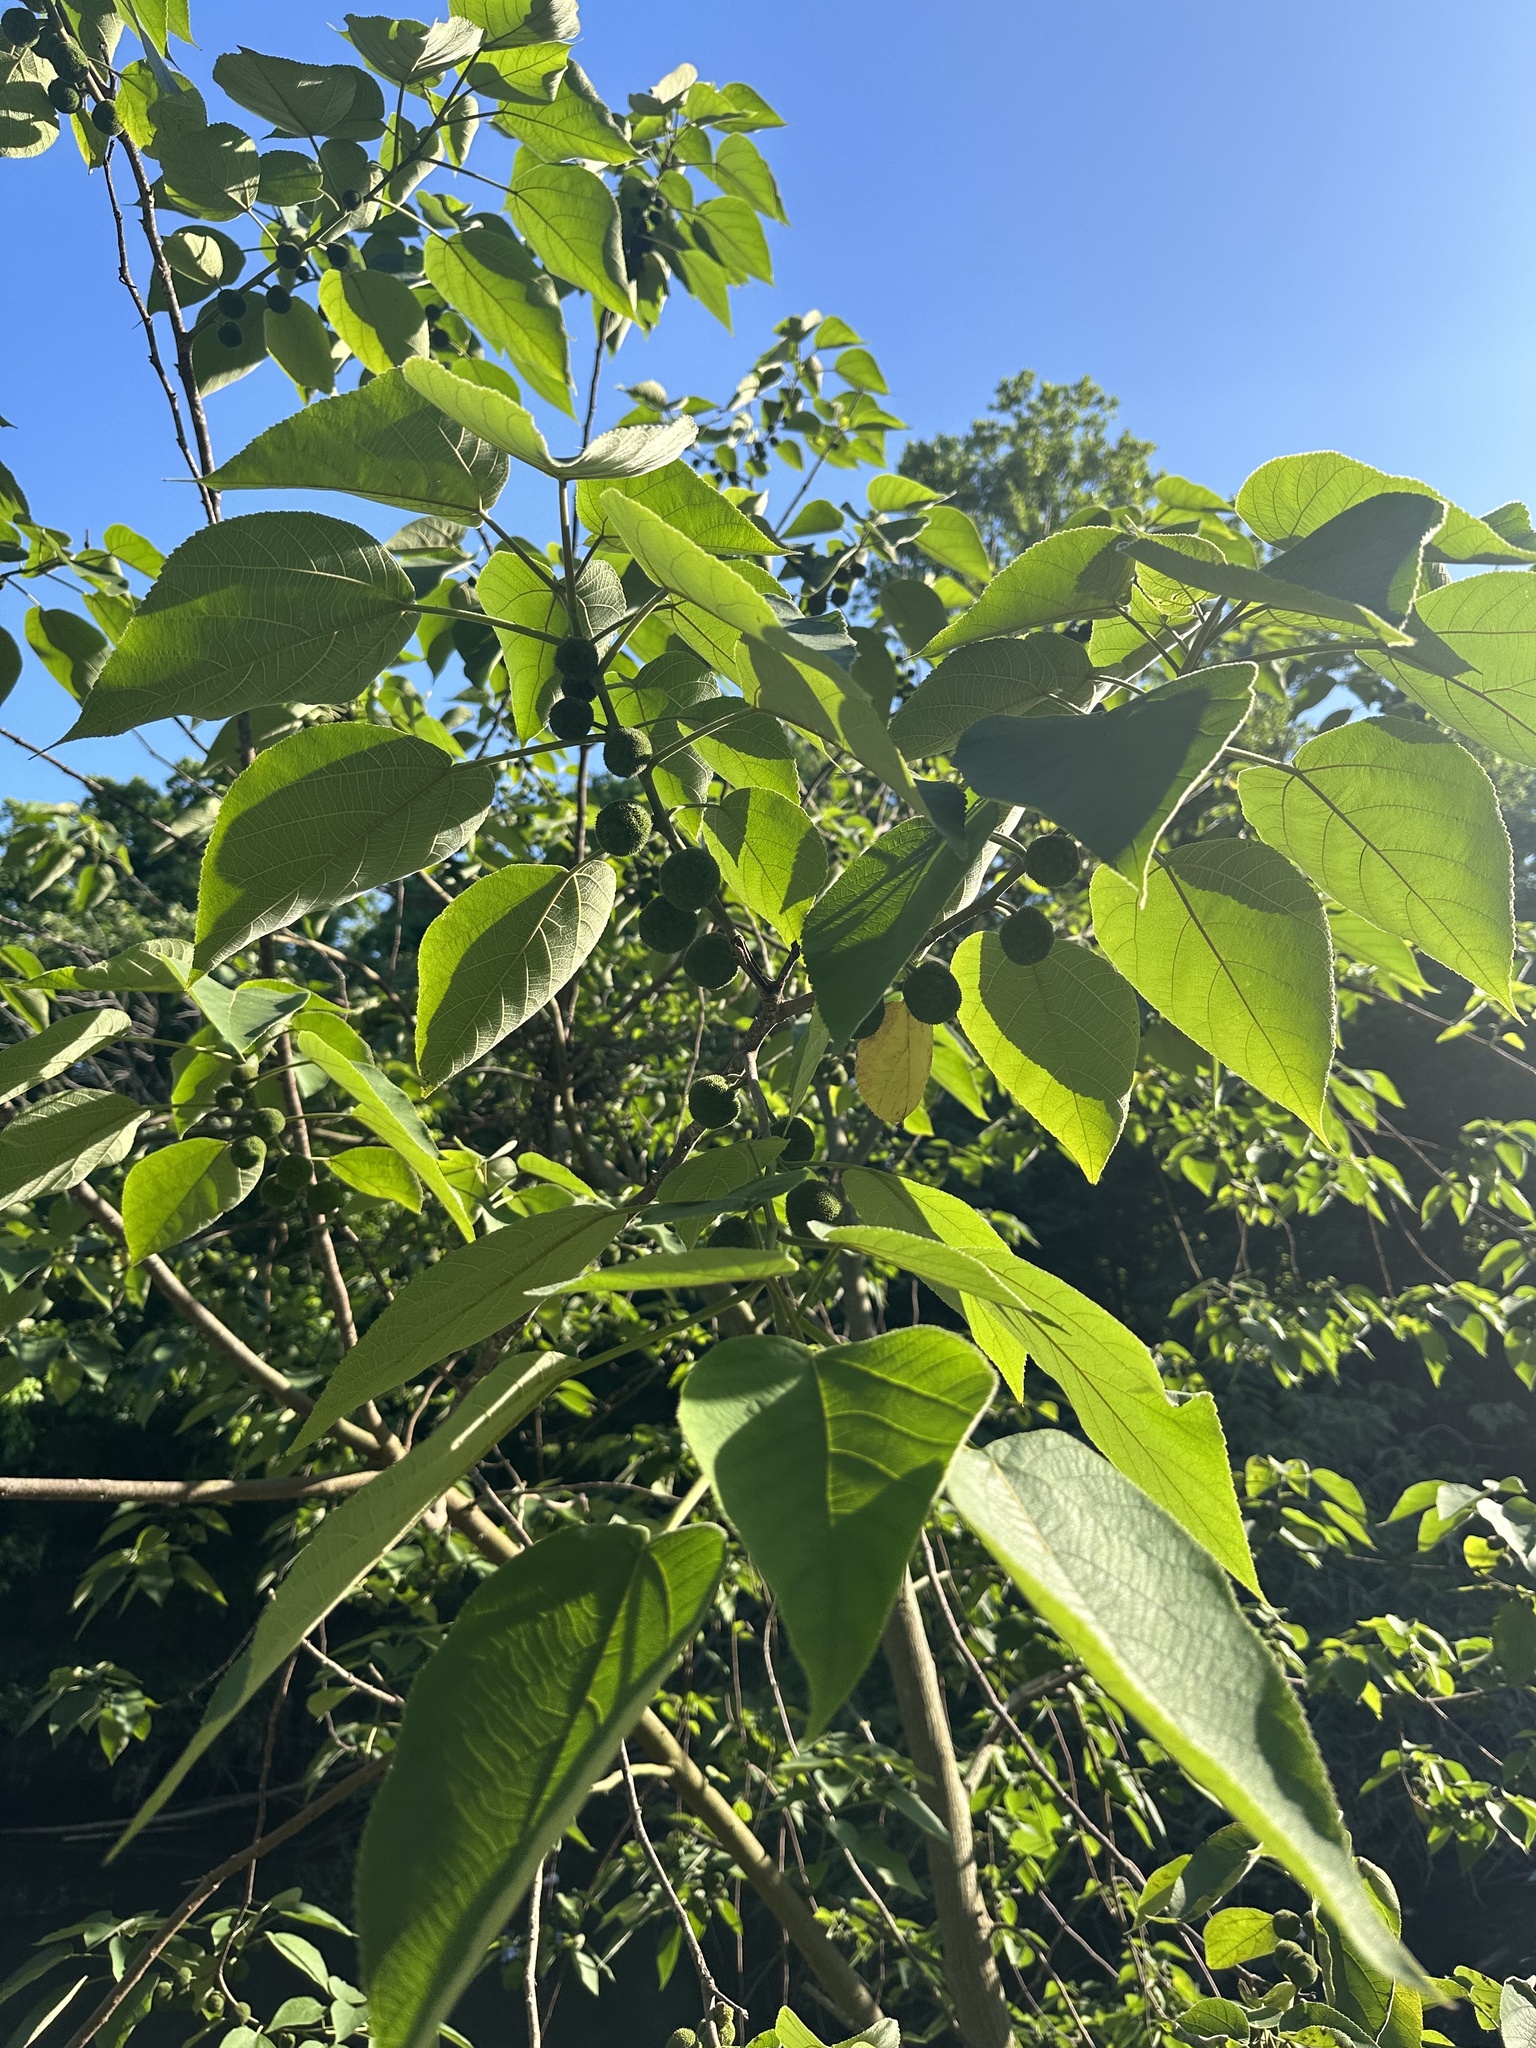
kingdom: Plantae
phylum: Tracheophyta
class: Magnoliopsida
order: Rosales
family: Moraceae
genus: Broussonetia
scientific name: Broussonetia papyrifera
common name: Paper mulberry
